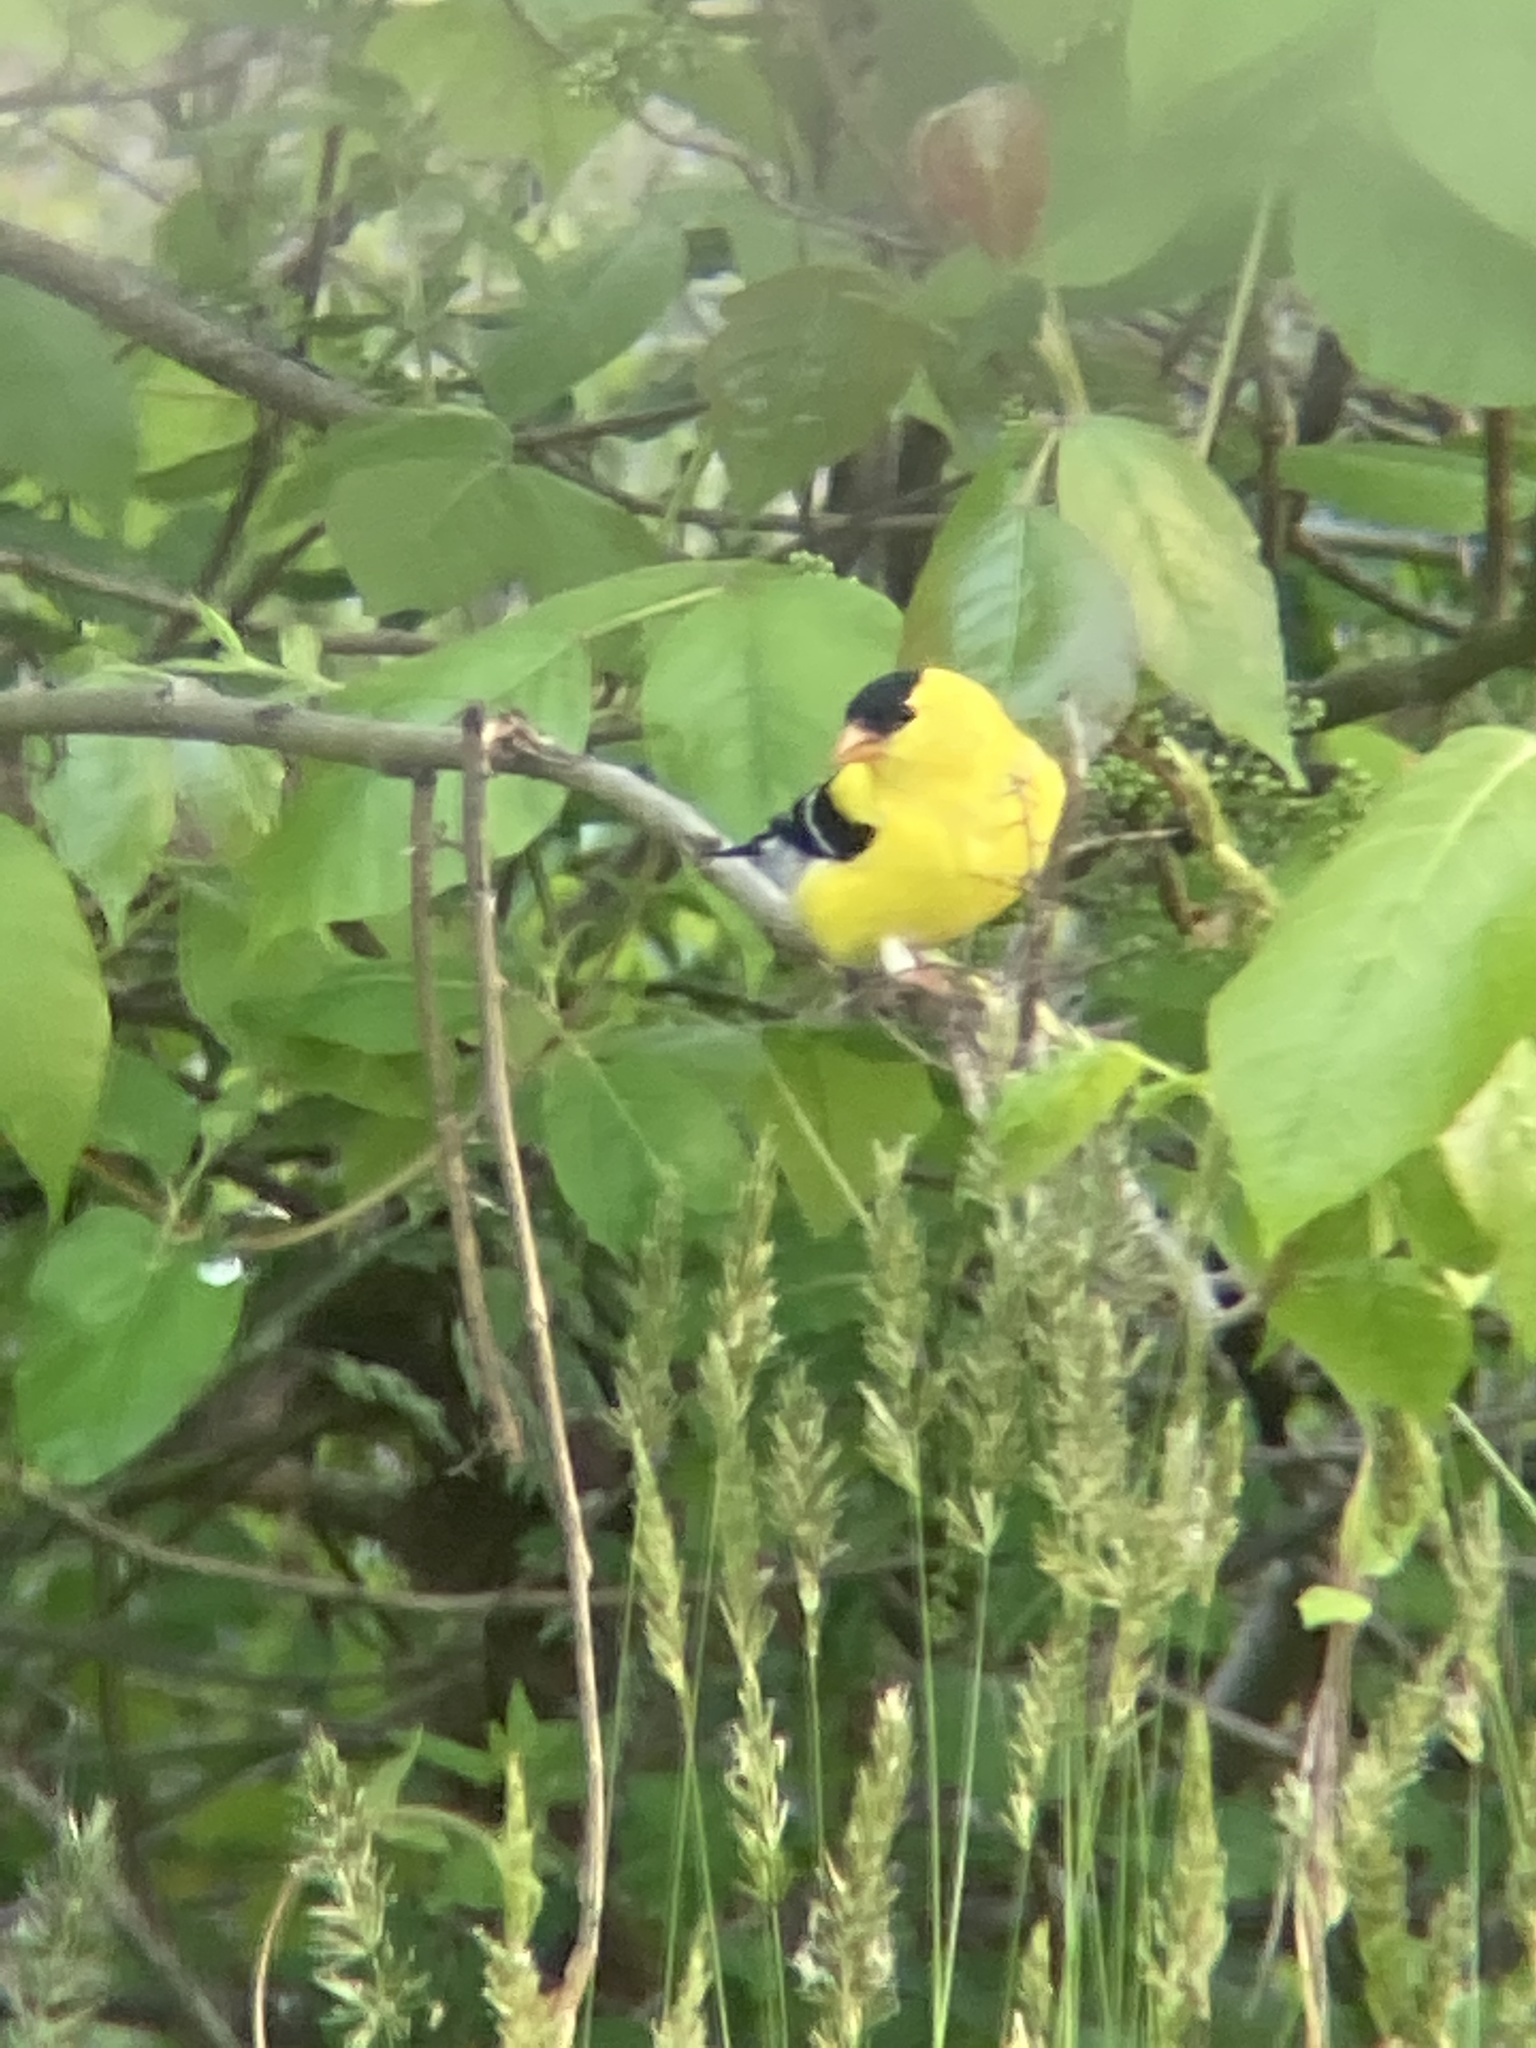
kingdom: Animalia
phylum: Chordata
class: Aves
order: Passeriformes
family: Fringillidae
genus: Spinus
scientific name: Spinus tristis
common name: American goldfinch
